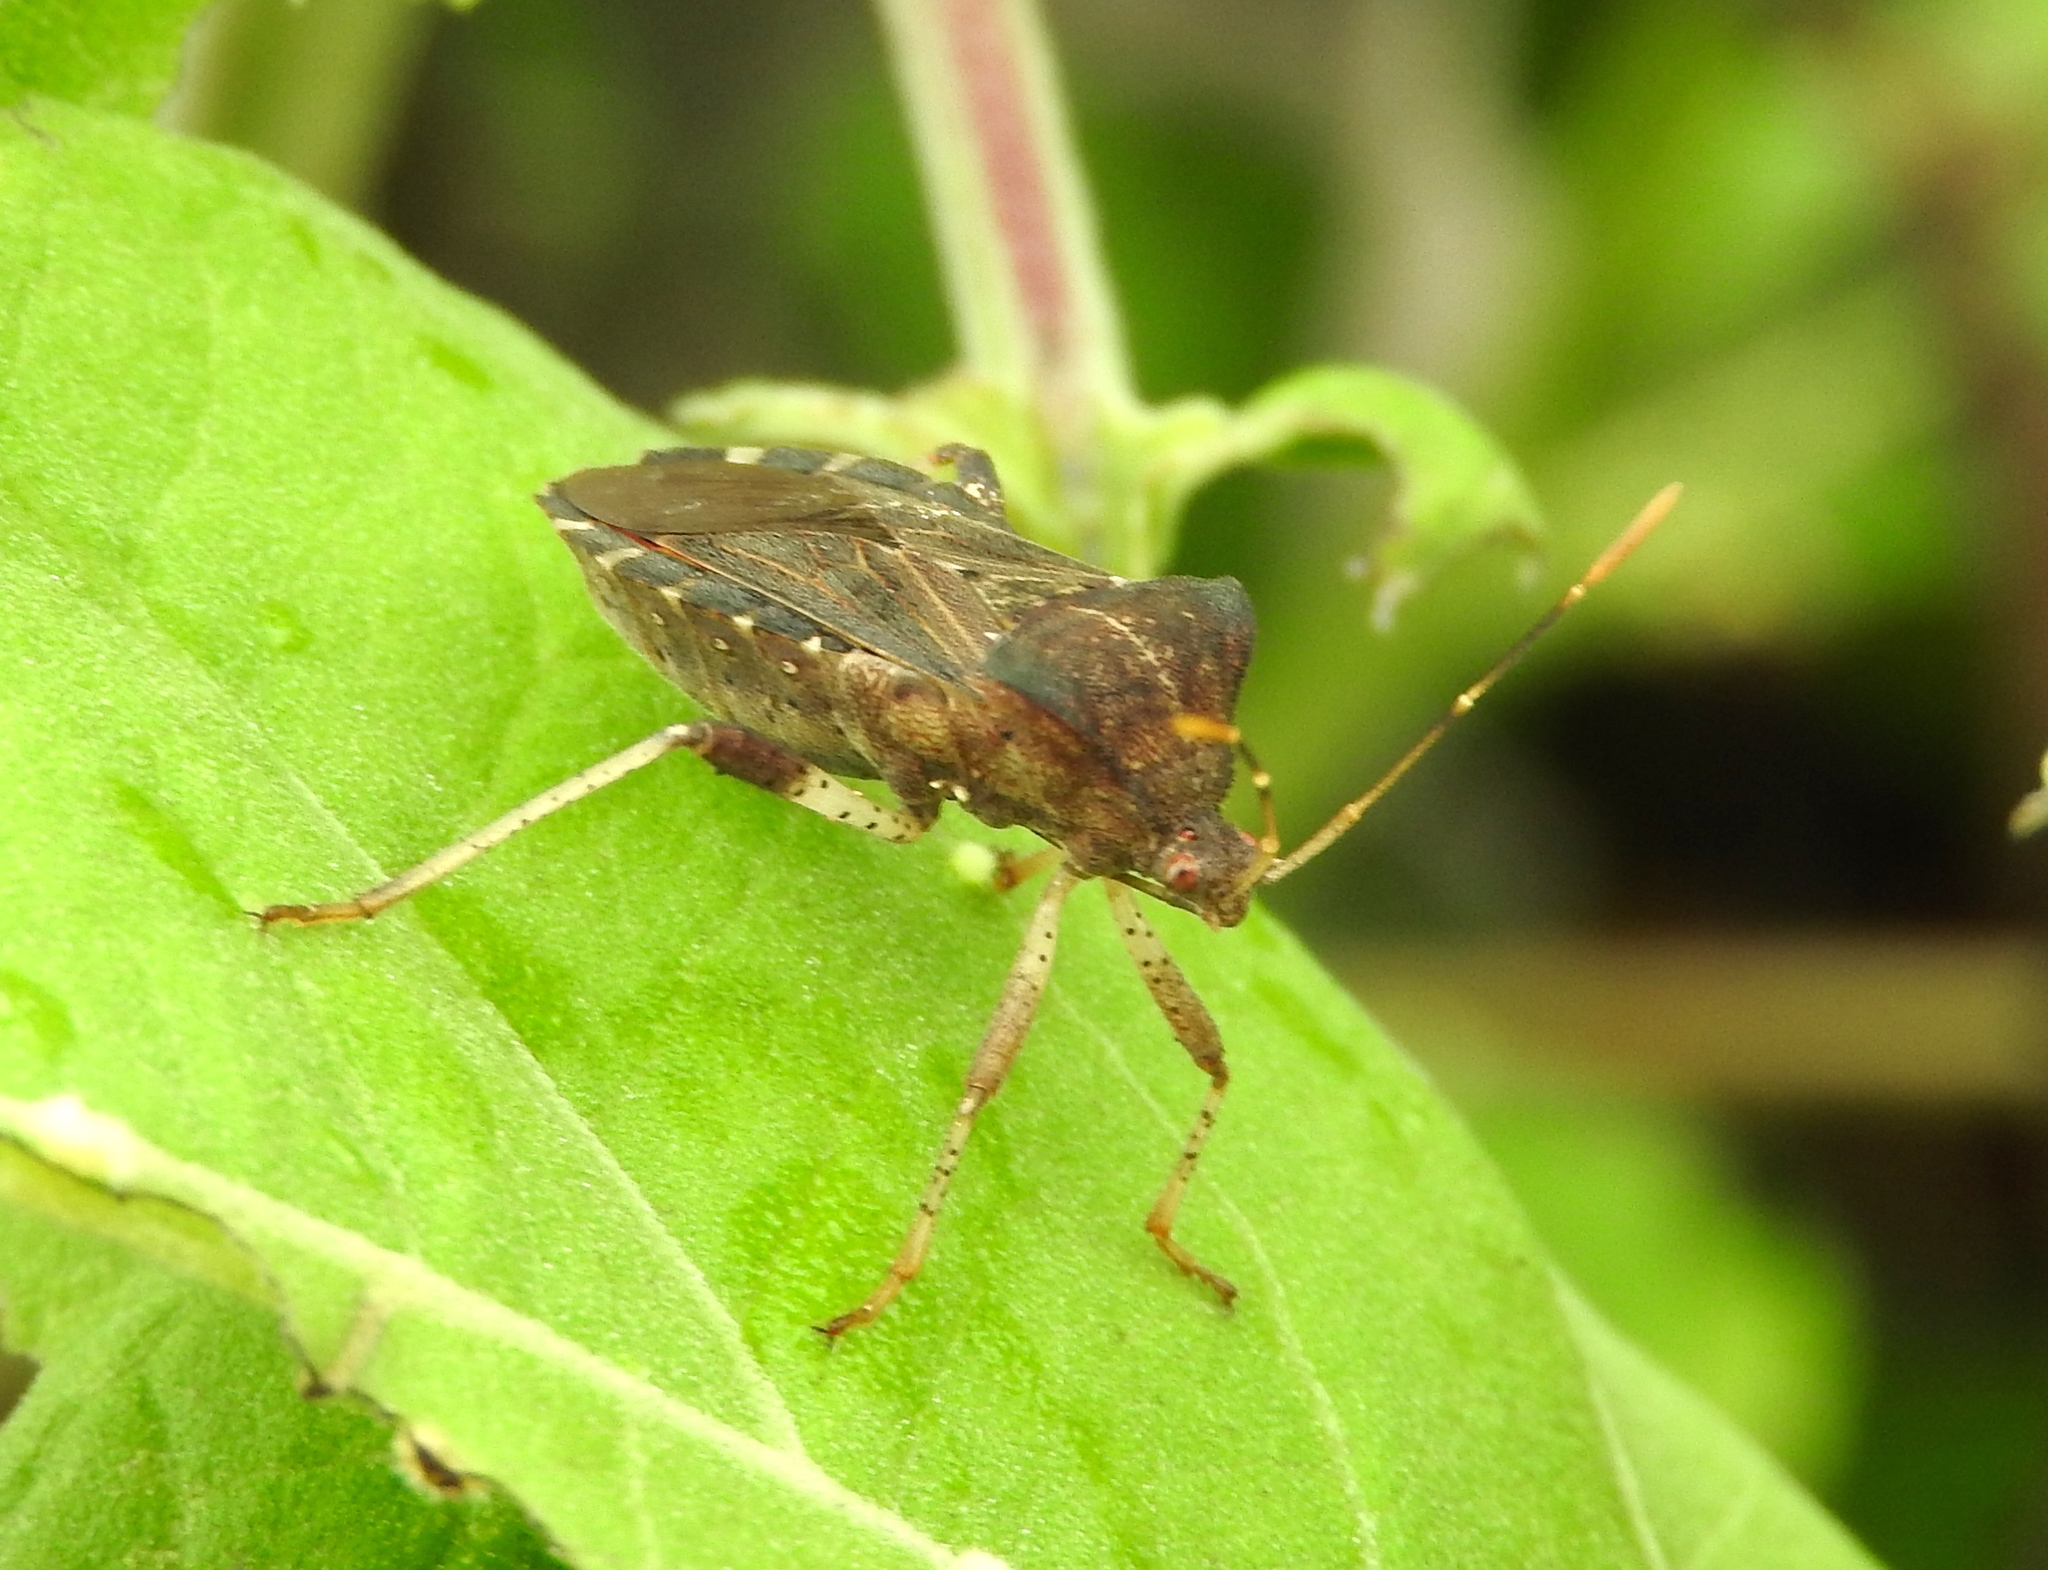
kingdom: Animalia
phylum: Arthropoda
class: Insecta
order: Hemiptera
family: Coreidae
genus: Anasa
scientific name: Anasa scorbutica
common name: Squash bug
